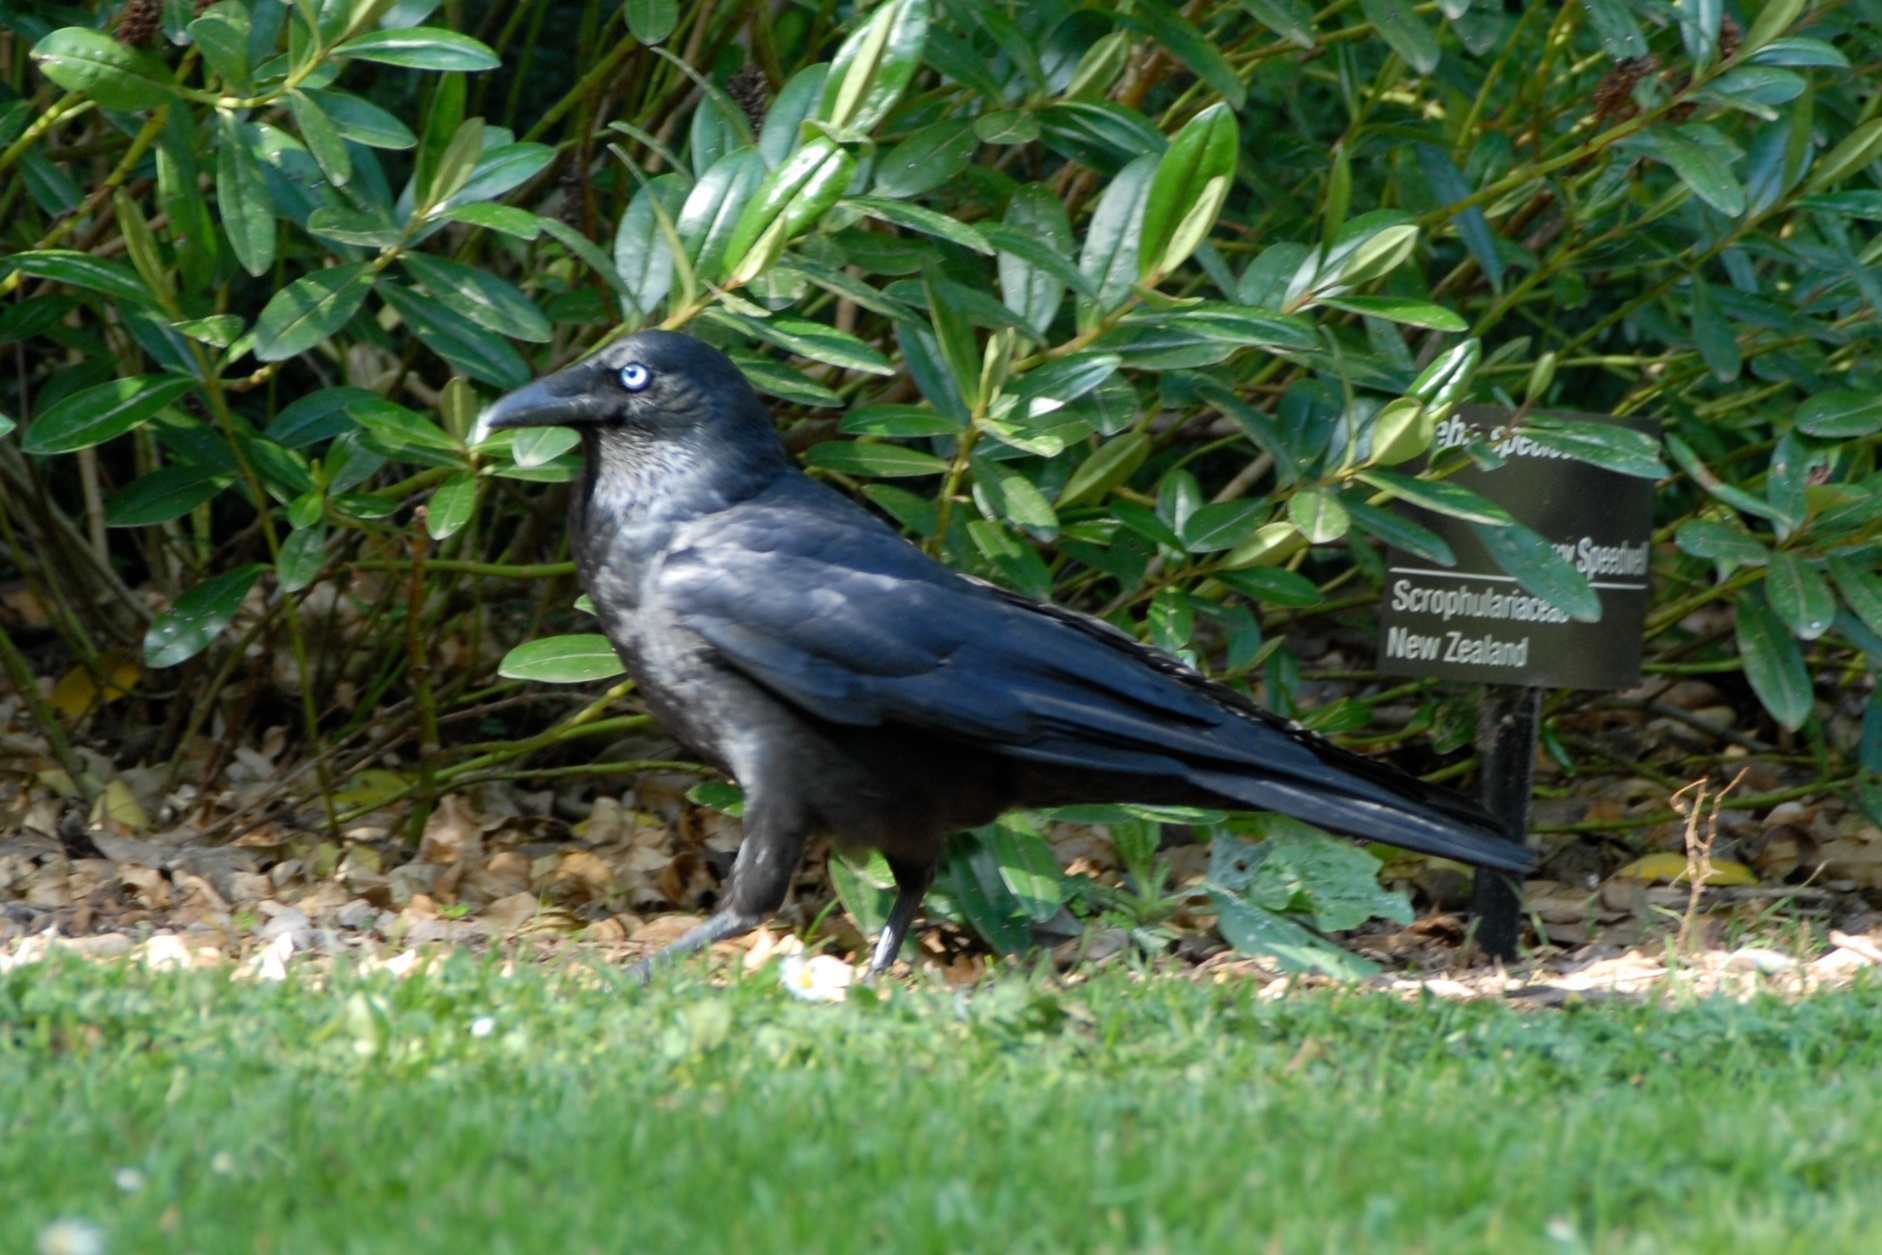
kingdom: Animalia
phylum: Chordata
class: Aves
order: Passeriformes
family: Corvidae
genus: Corvus
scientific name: Corvus mellori
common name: Little raven
